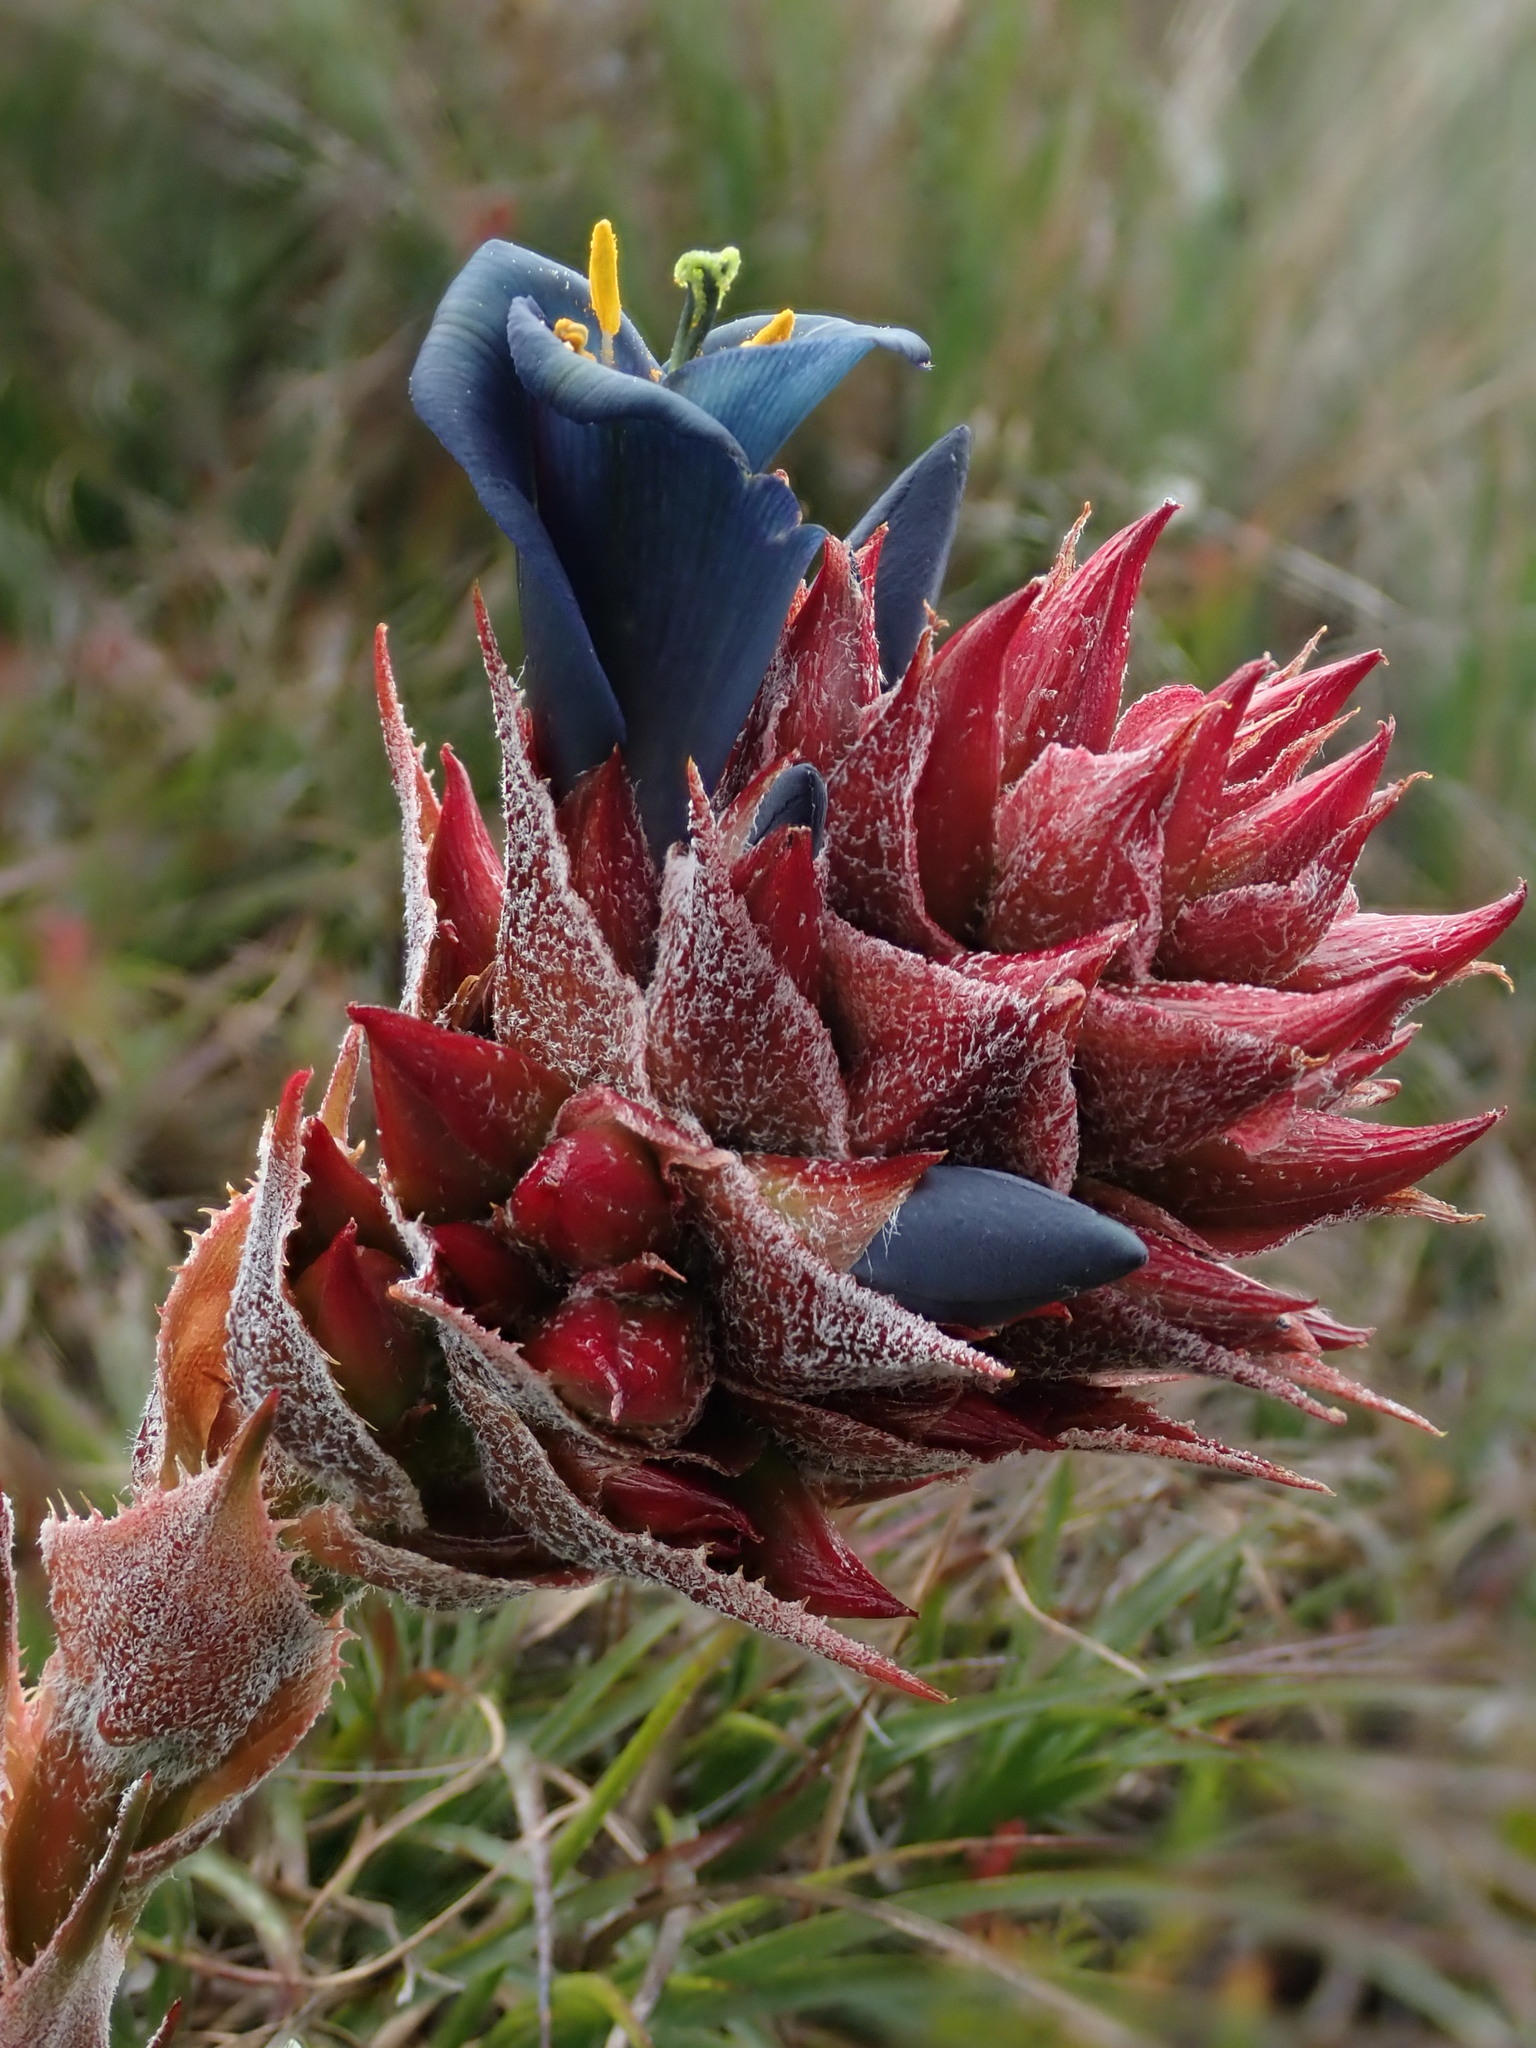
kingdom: Plantae
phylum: Tracheophyta
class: Liliopsida
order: Poales
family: Bromeliaceae
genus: Puya
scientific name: Puya eryngioides
